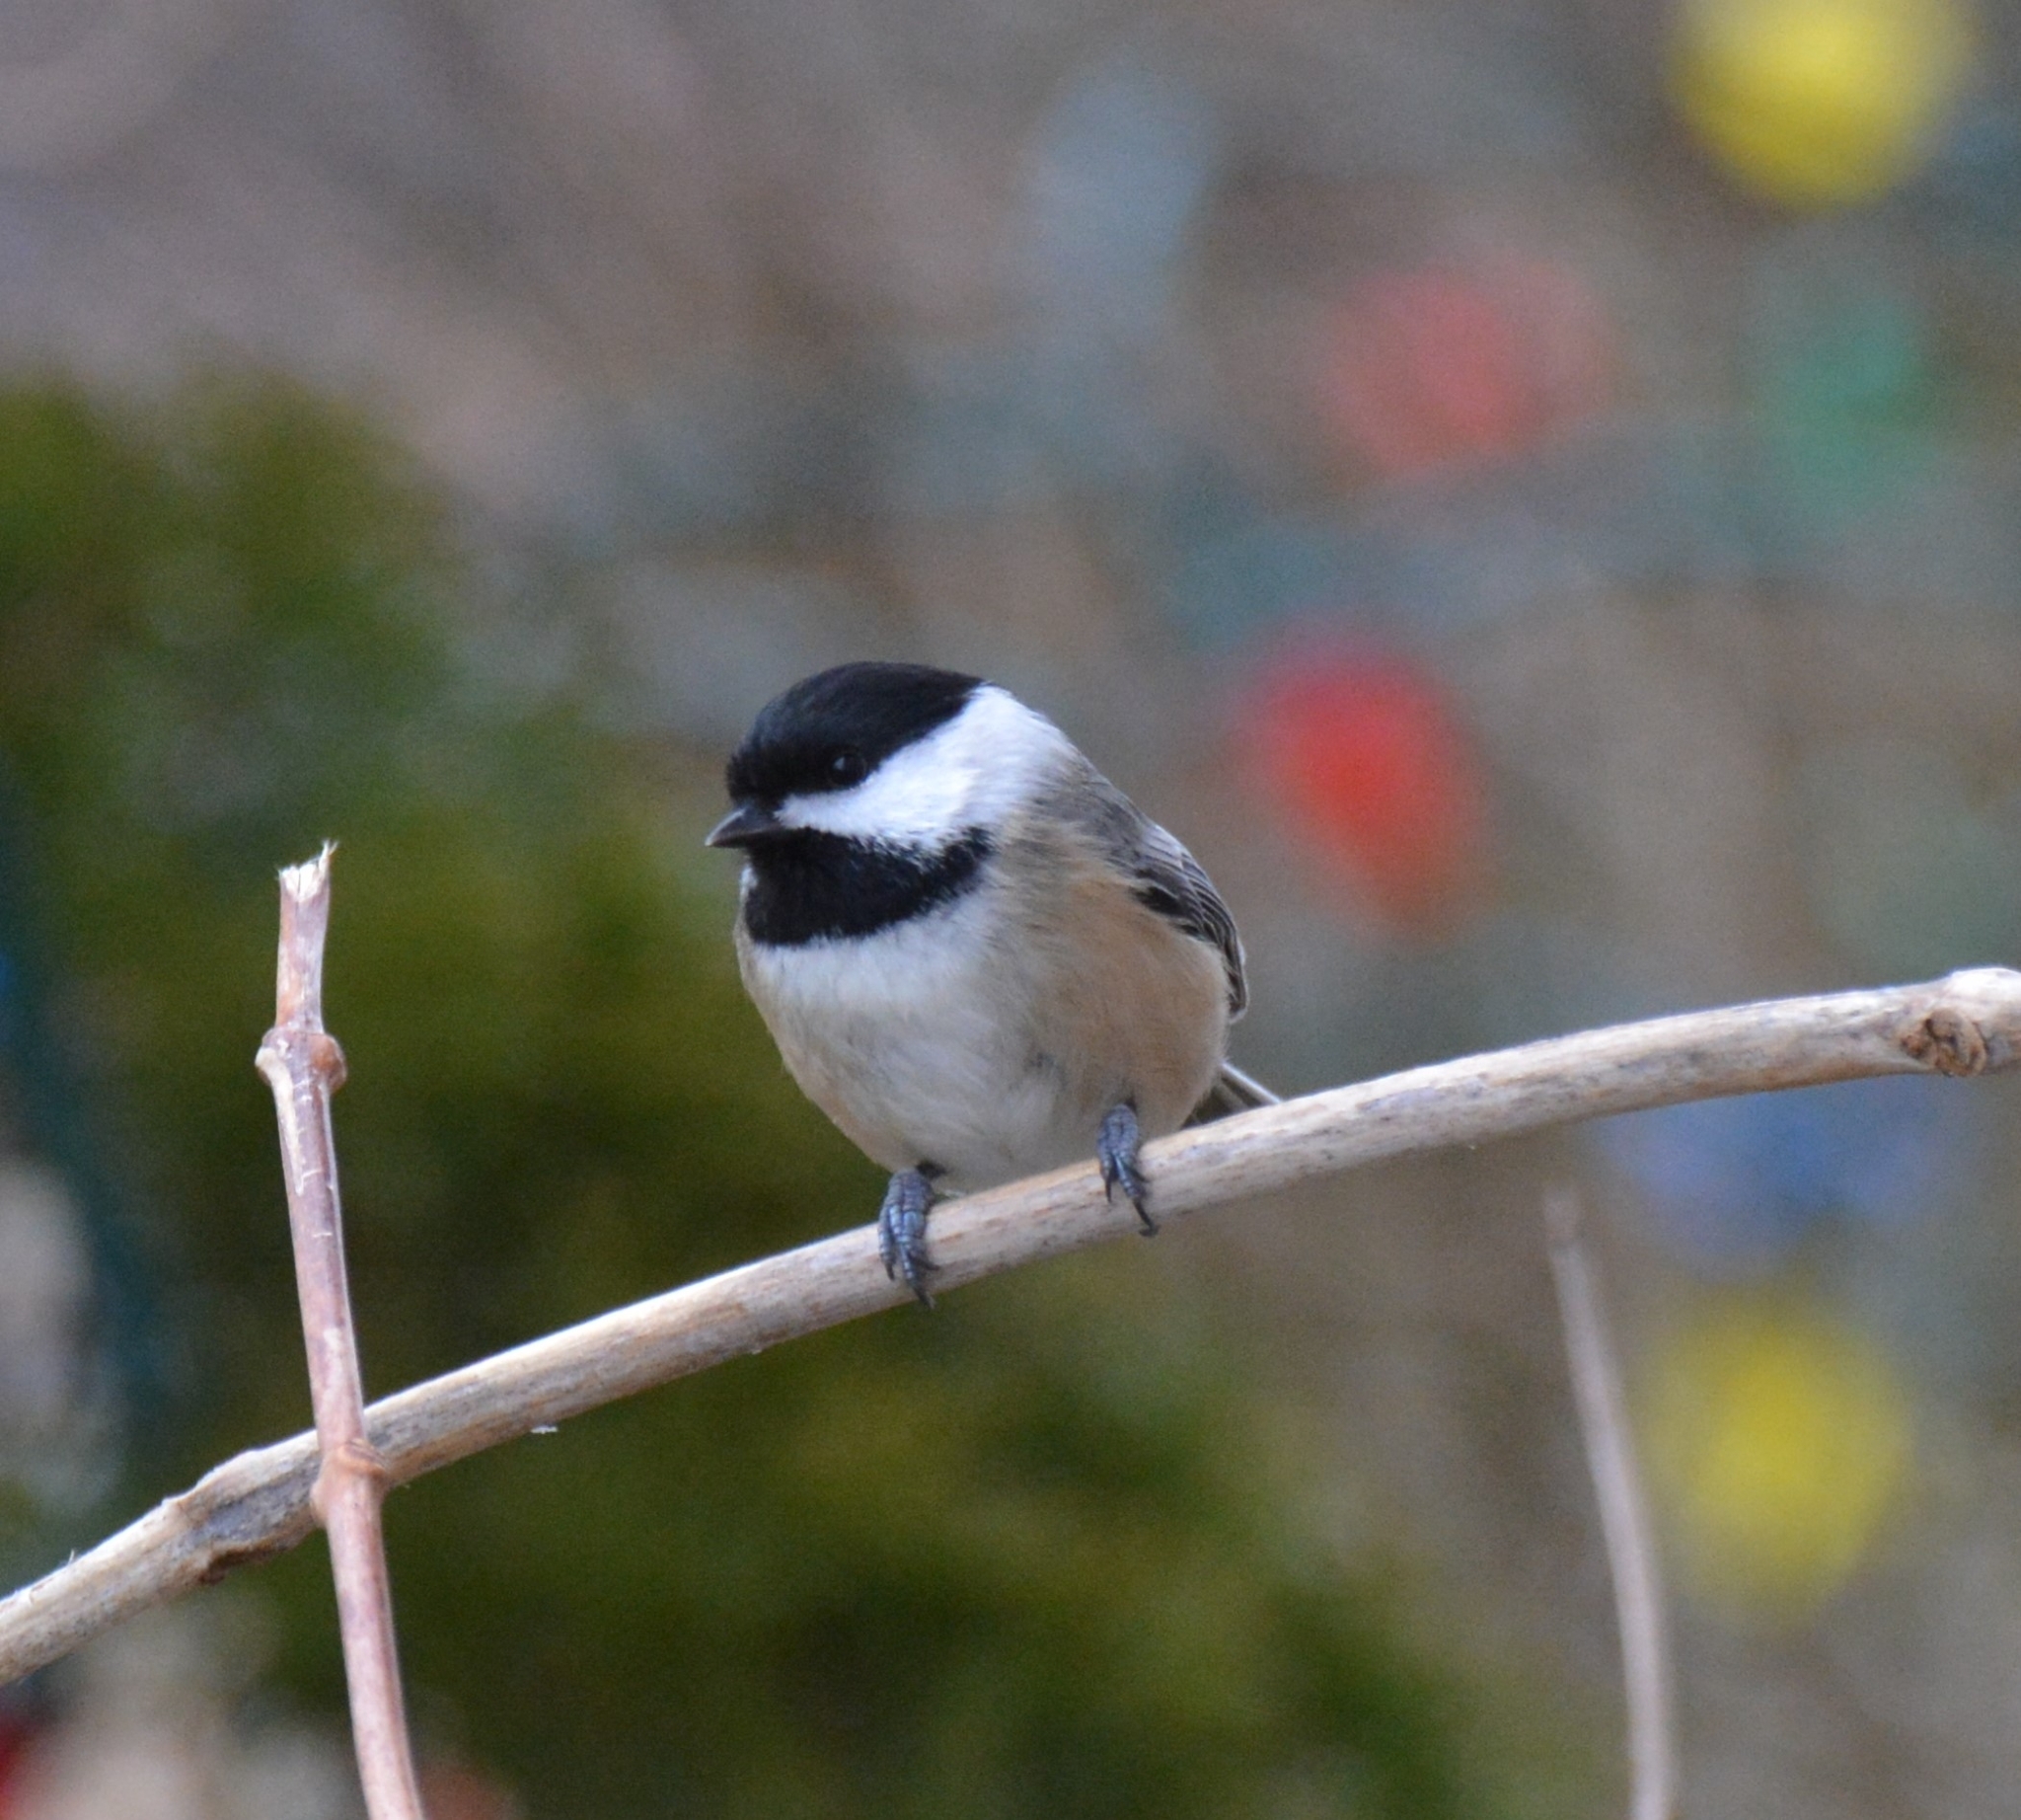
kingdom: Animalia
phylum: Chordata
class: Aves
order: Passeriformes
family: Paridae
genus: Poecile
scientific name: Poecile atricapillus
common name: Black-capped chickadee
